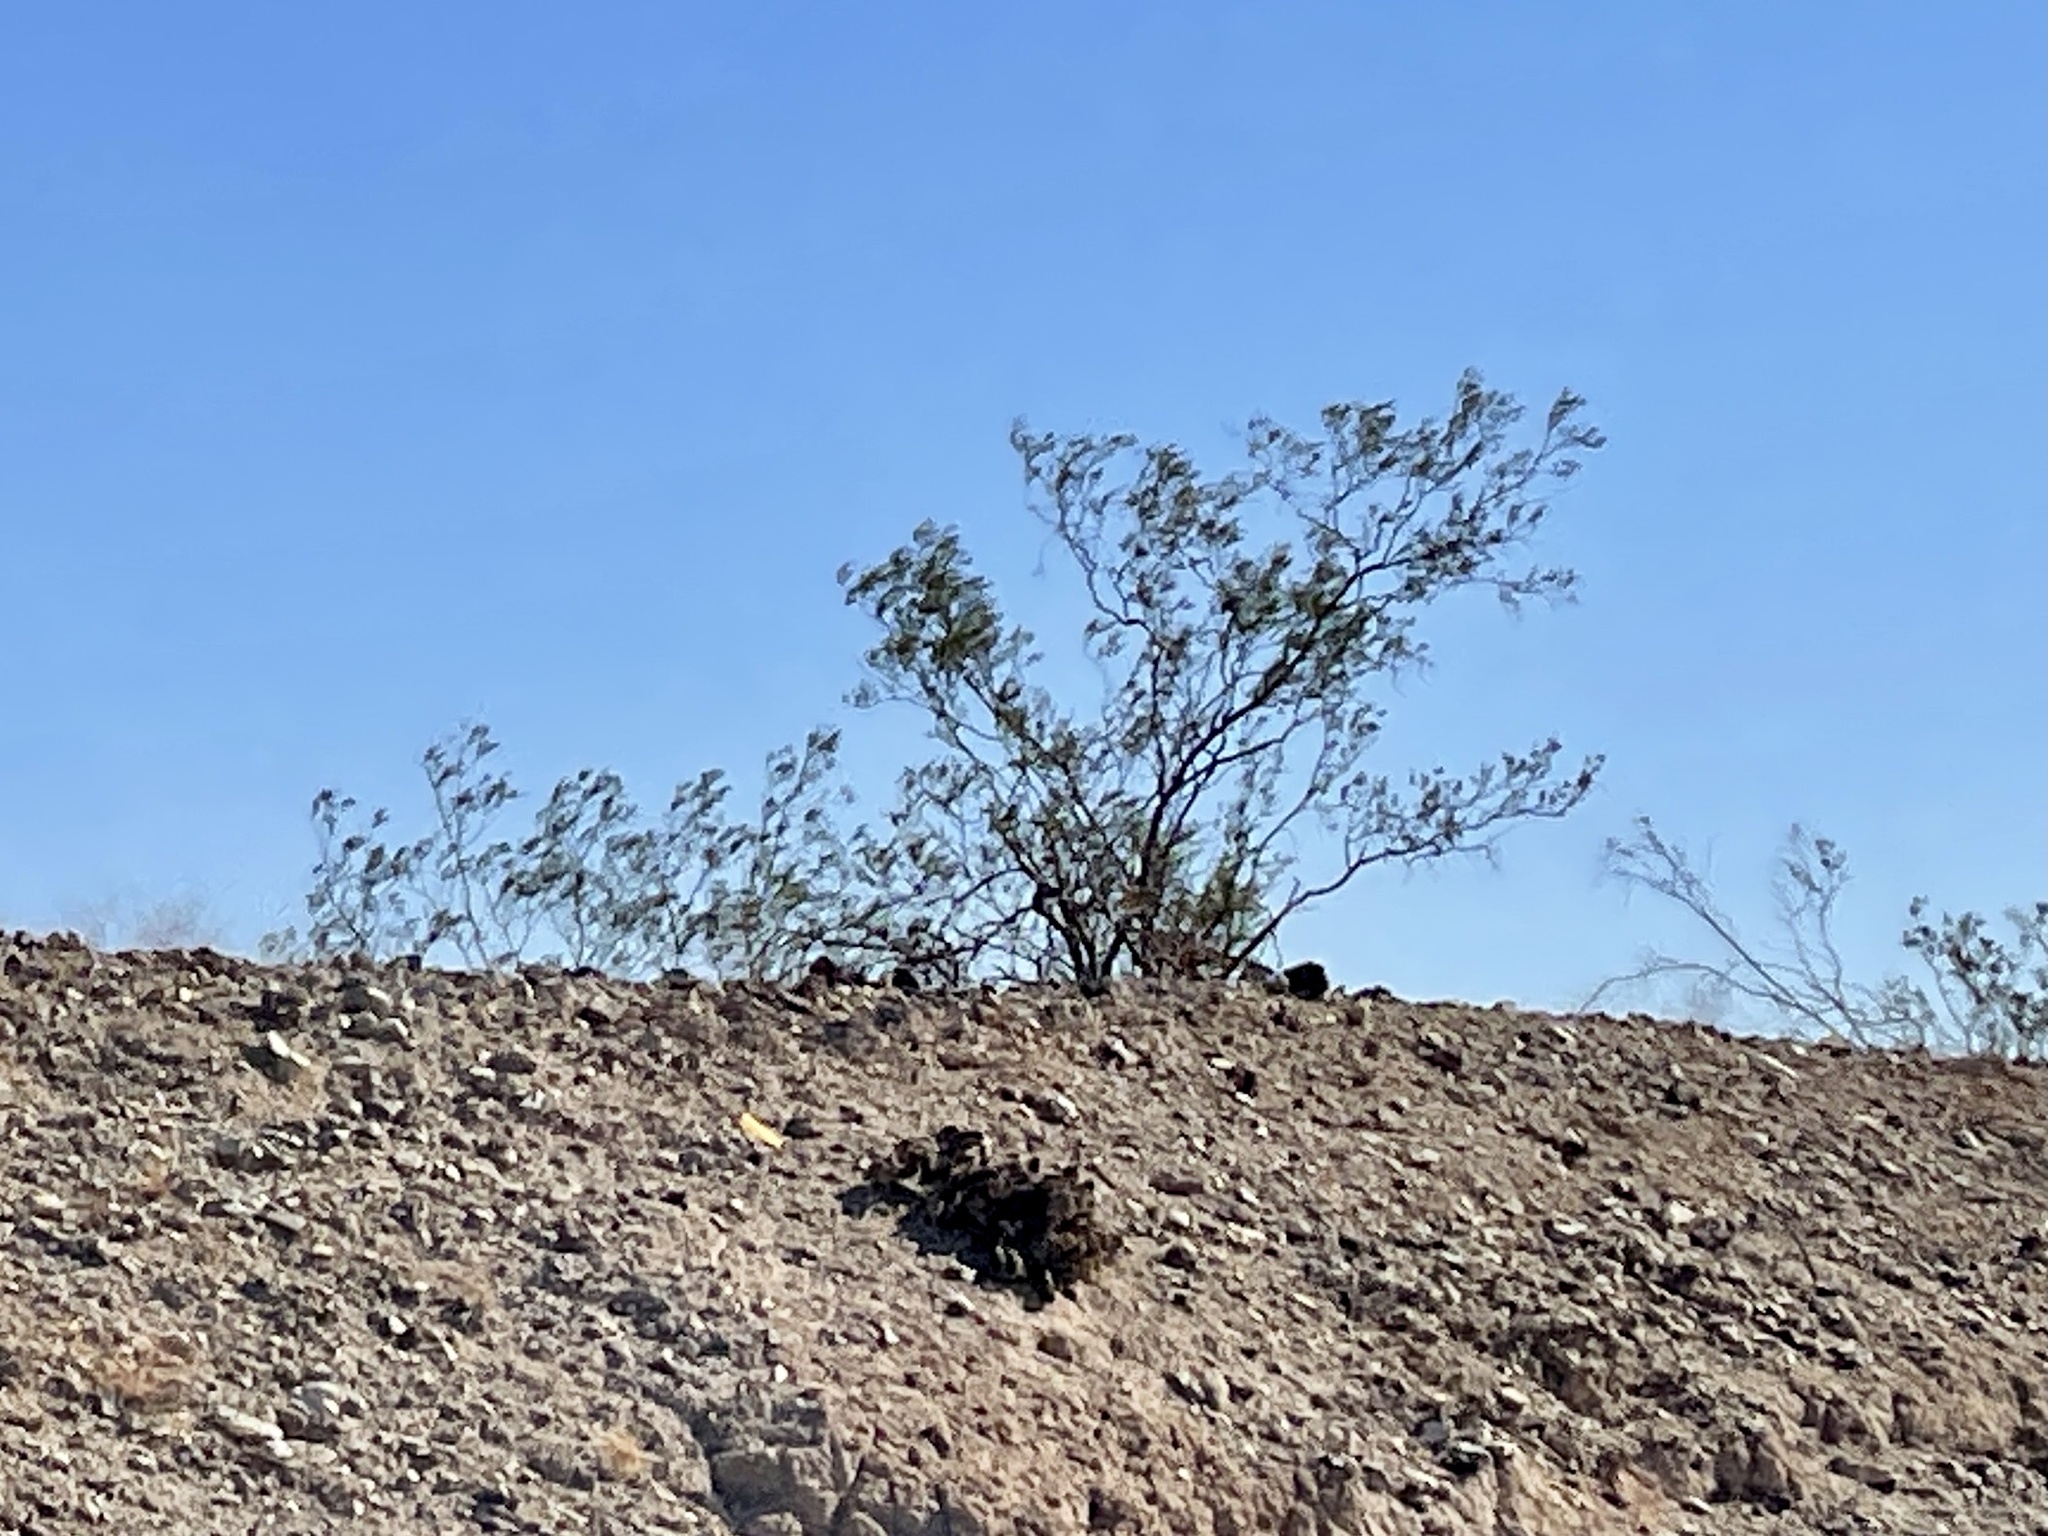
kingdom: Plantae
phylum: Tracheophyta
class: Magnoliopsida
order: Zygophyllales
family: Zygophyllaceae
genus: Larrea
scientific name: Larrea tridentata
